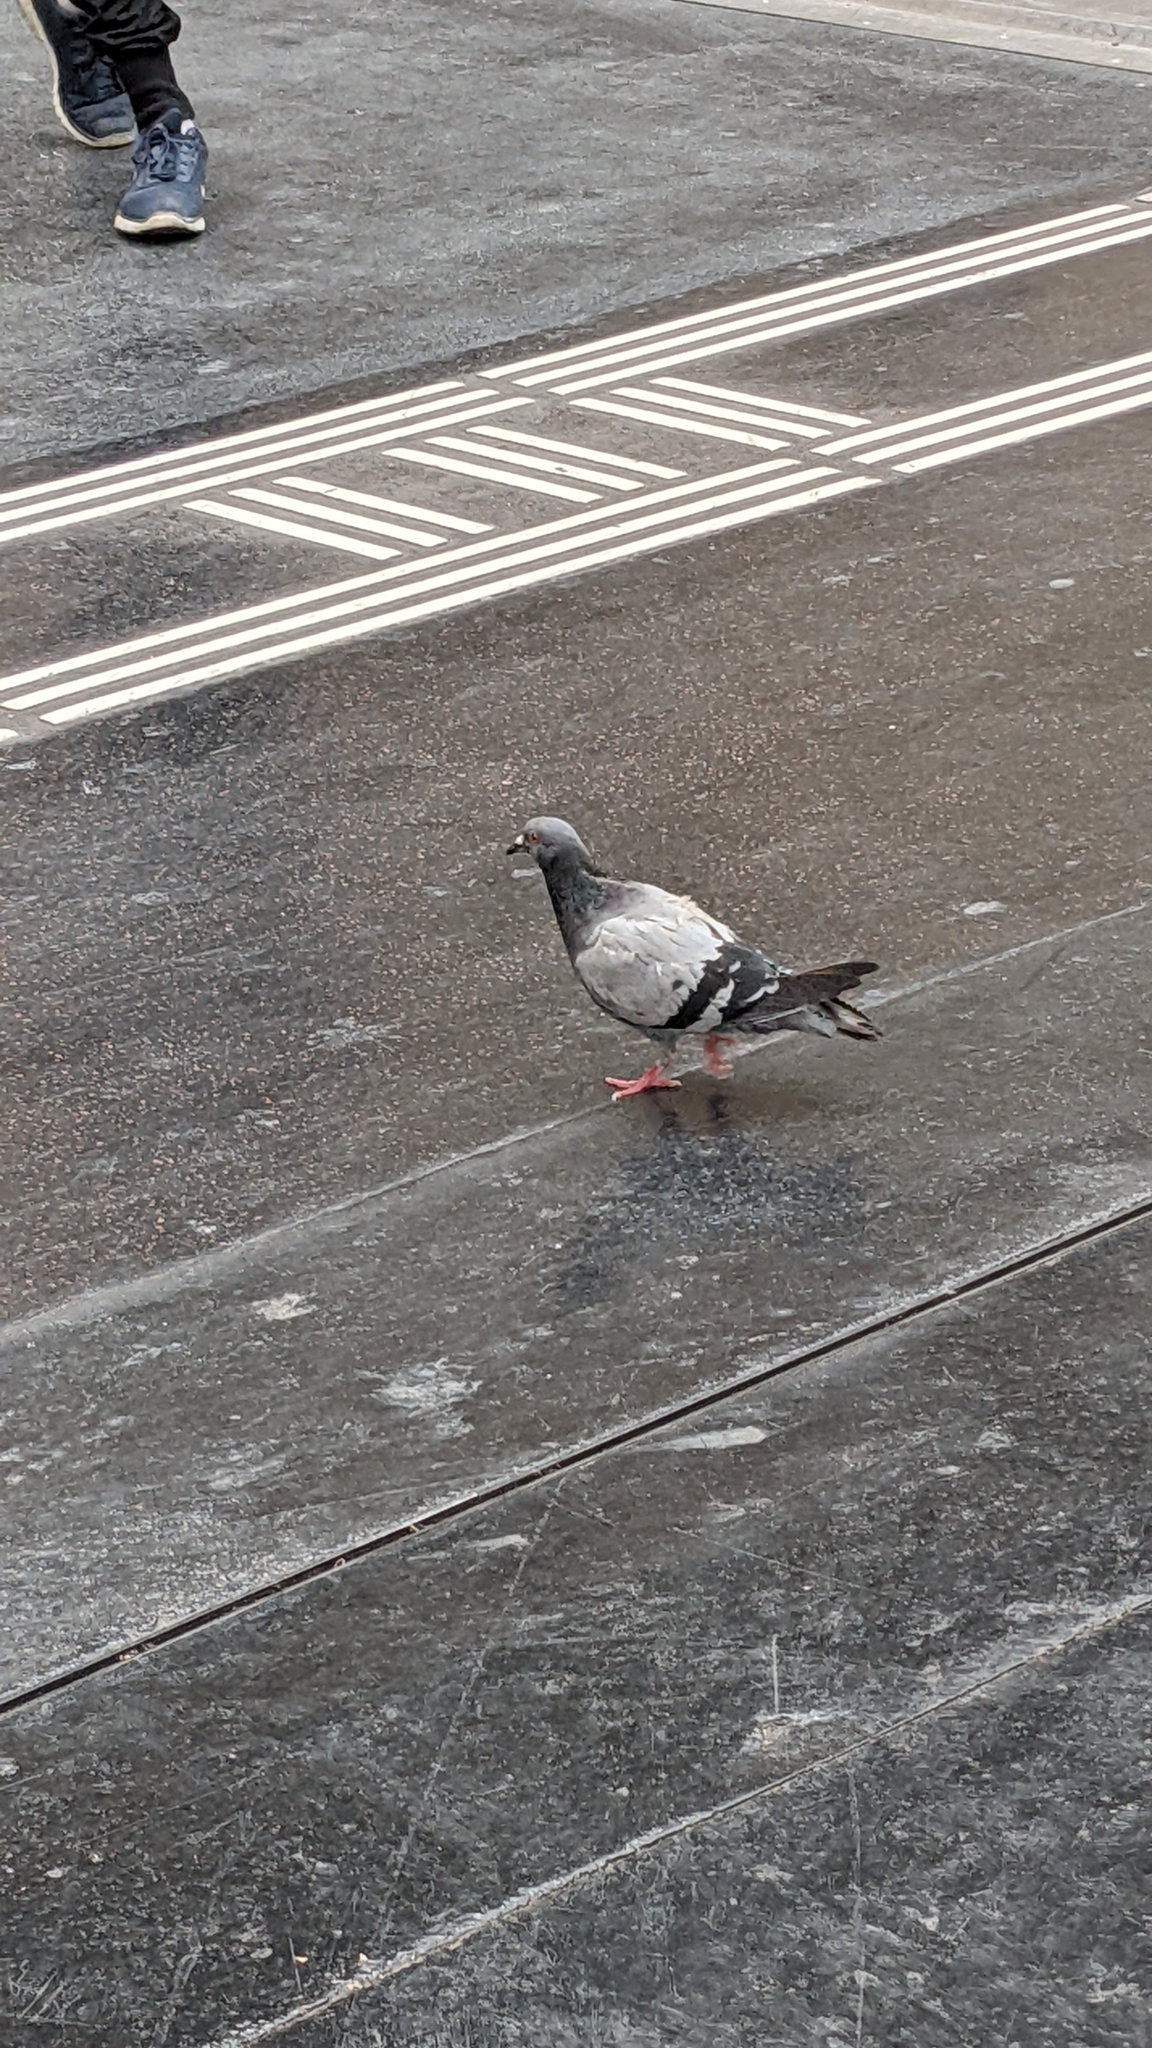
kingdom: Animalia
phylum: Chordata
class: Aves
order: Columbiformes
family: Columbidae
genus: Columba
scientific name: Columba livia
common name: Rock pigeon
